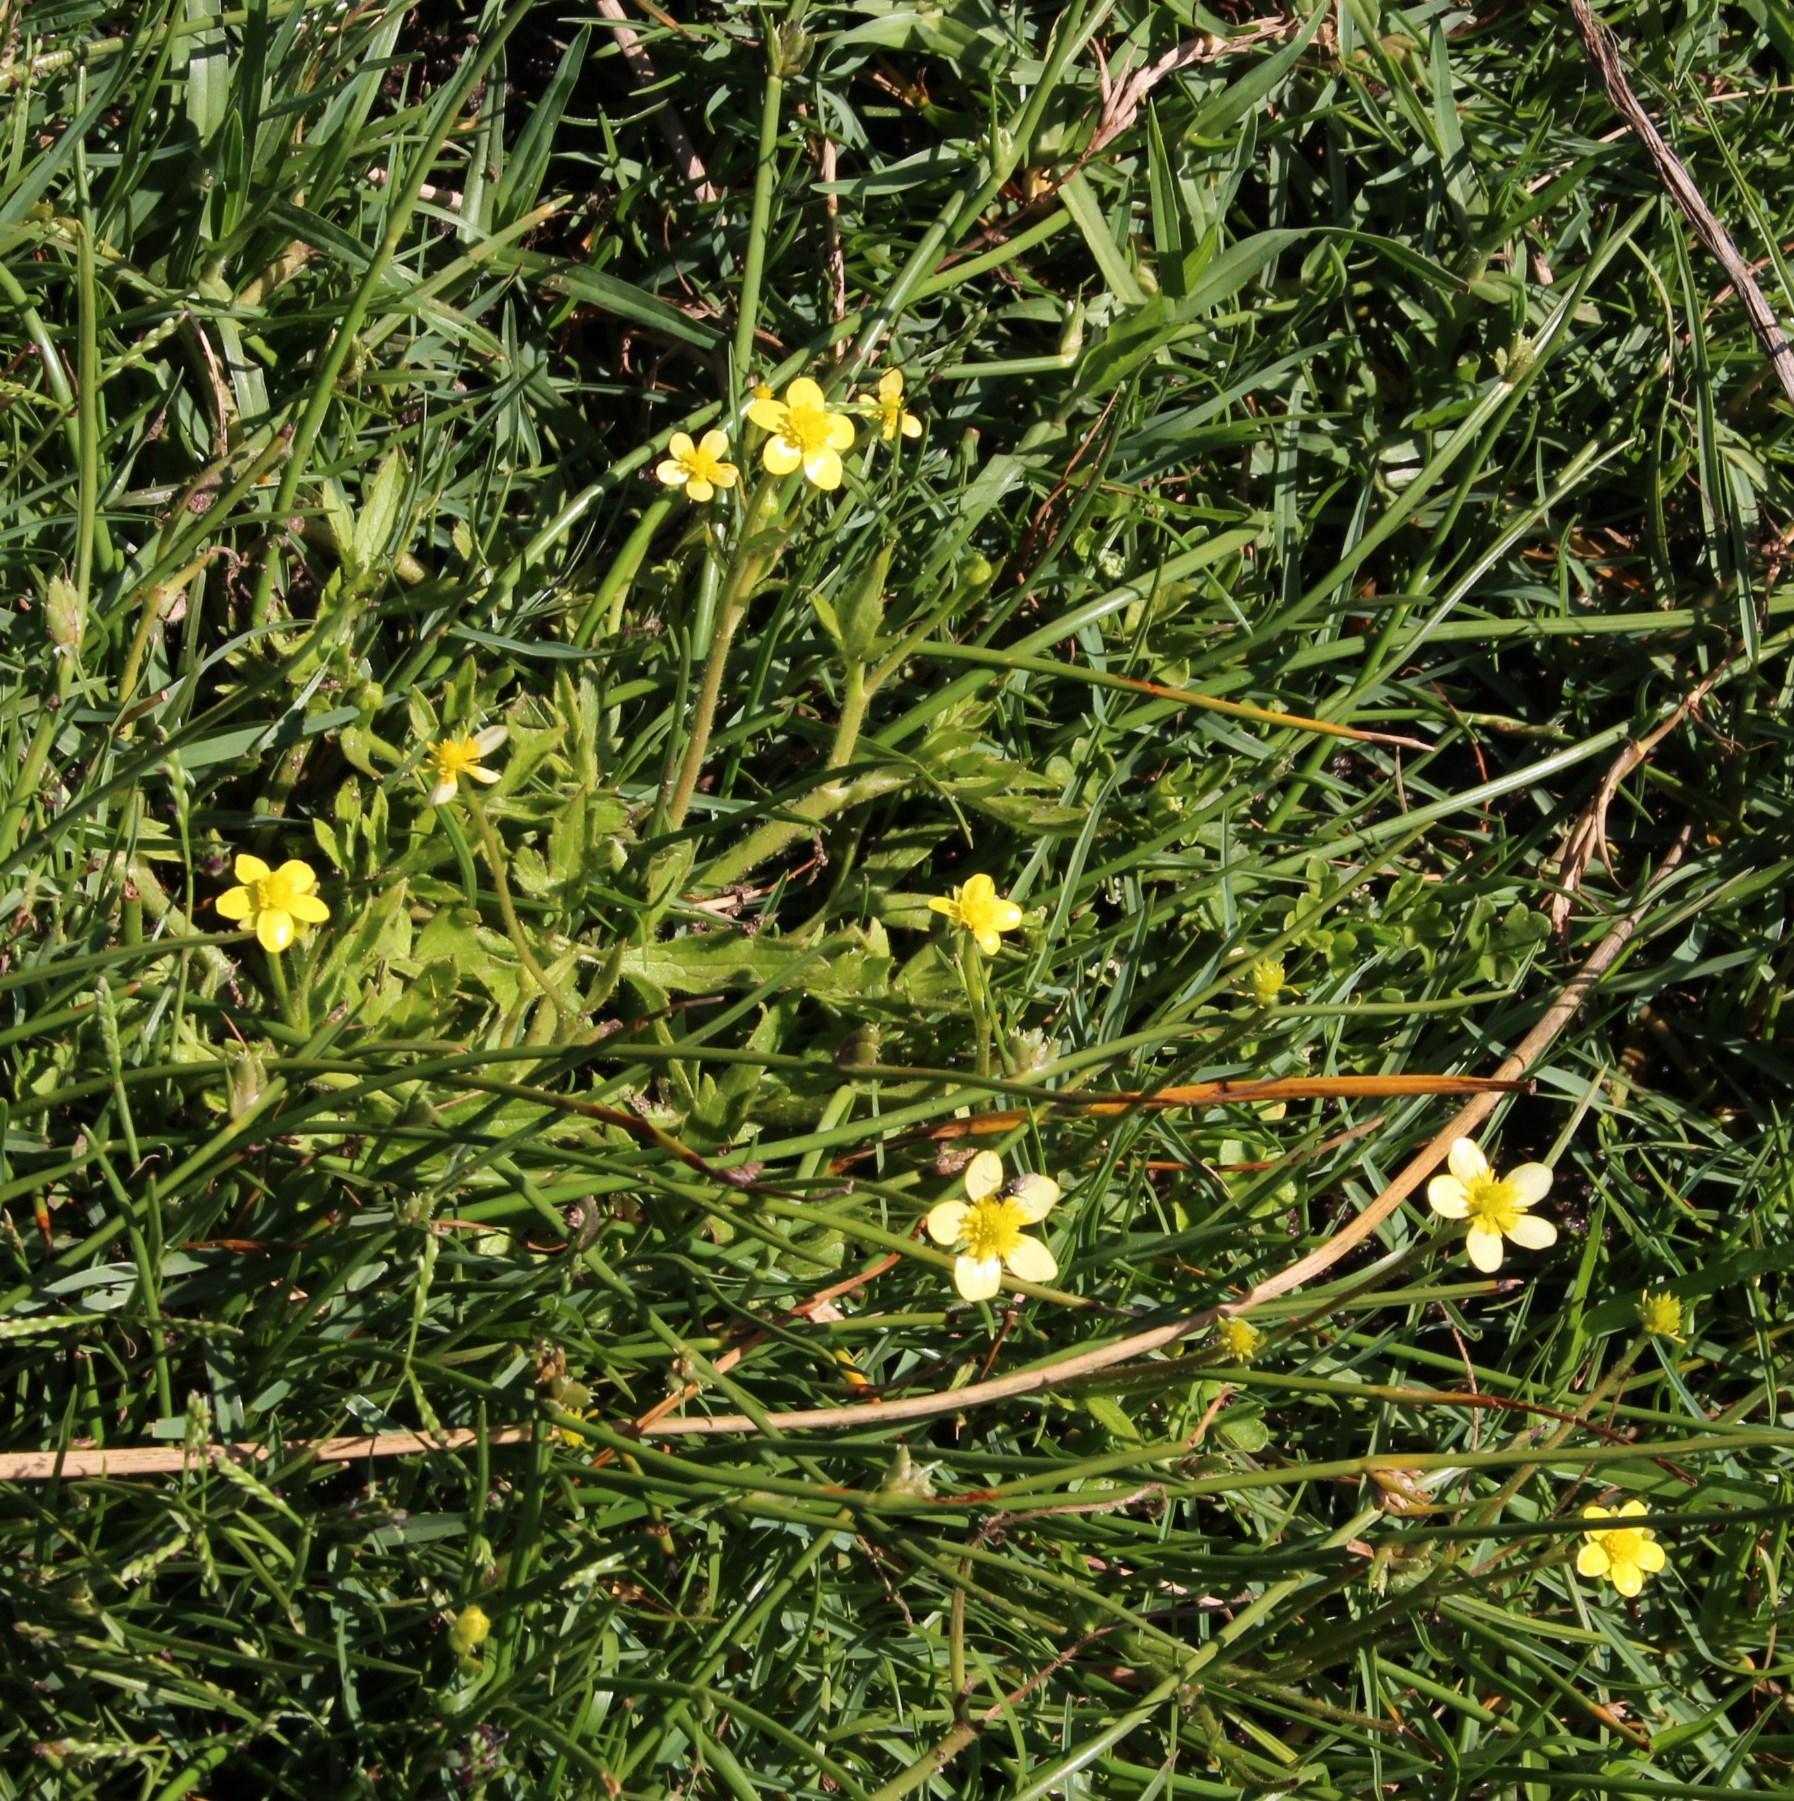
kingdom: Plantae
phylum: Tracheophyta
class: Magnoliopsida
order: Ranunculales
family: Ranunculaceae
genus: Ranunculus
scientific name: Ranunculus multifidus
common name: Wild buttercup
